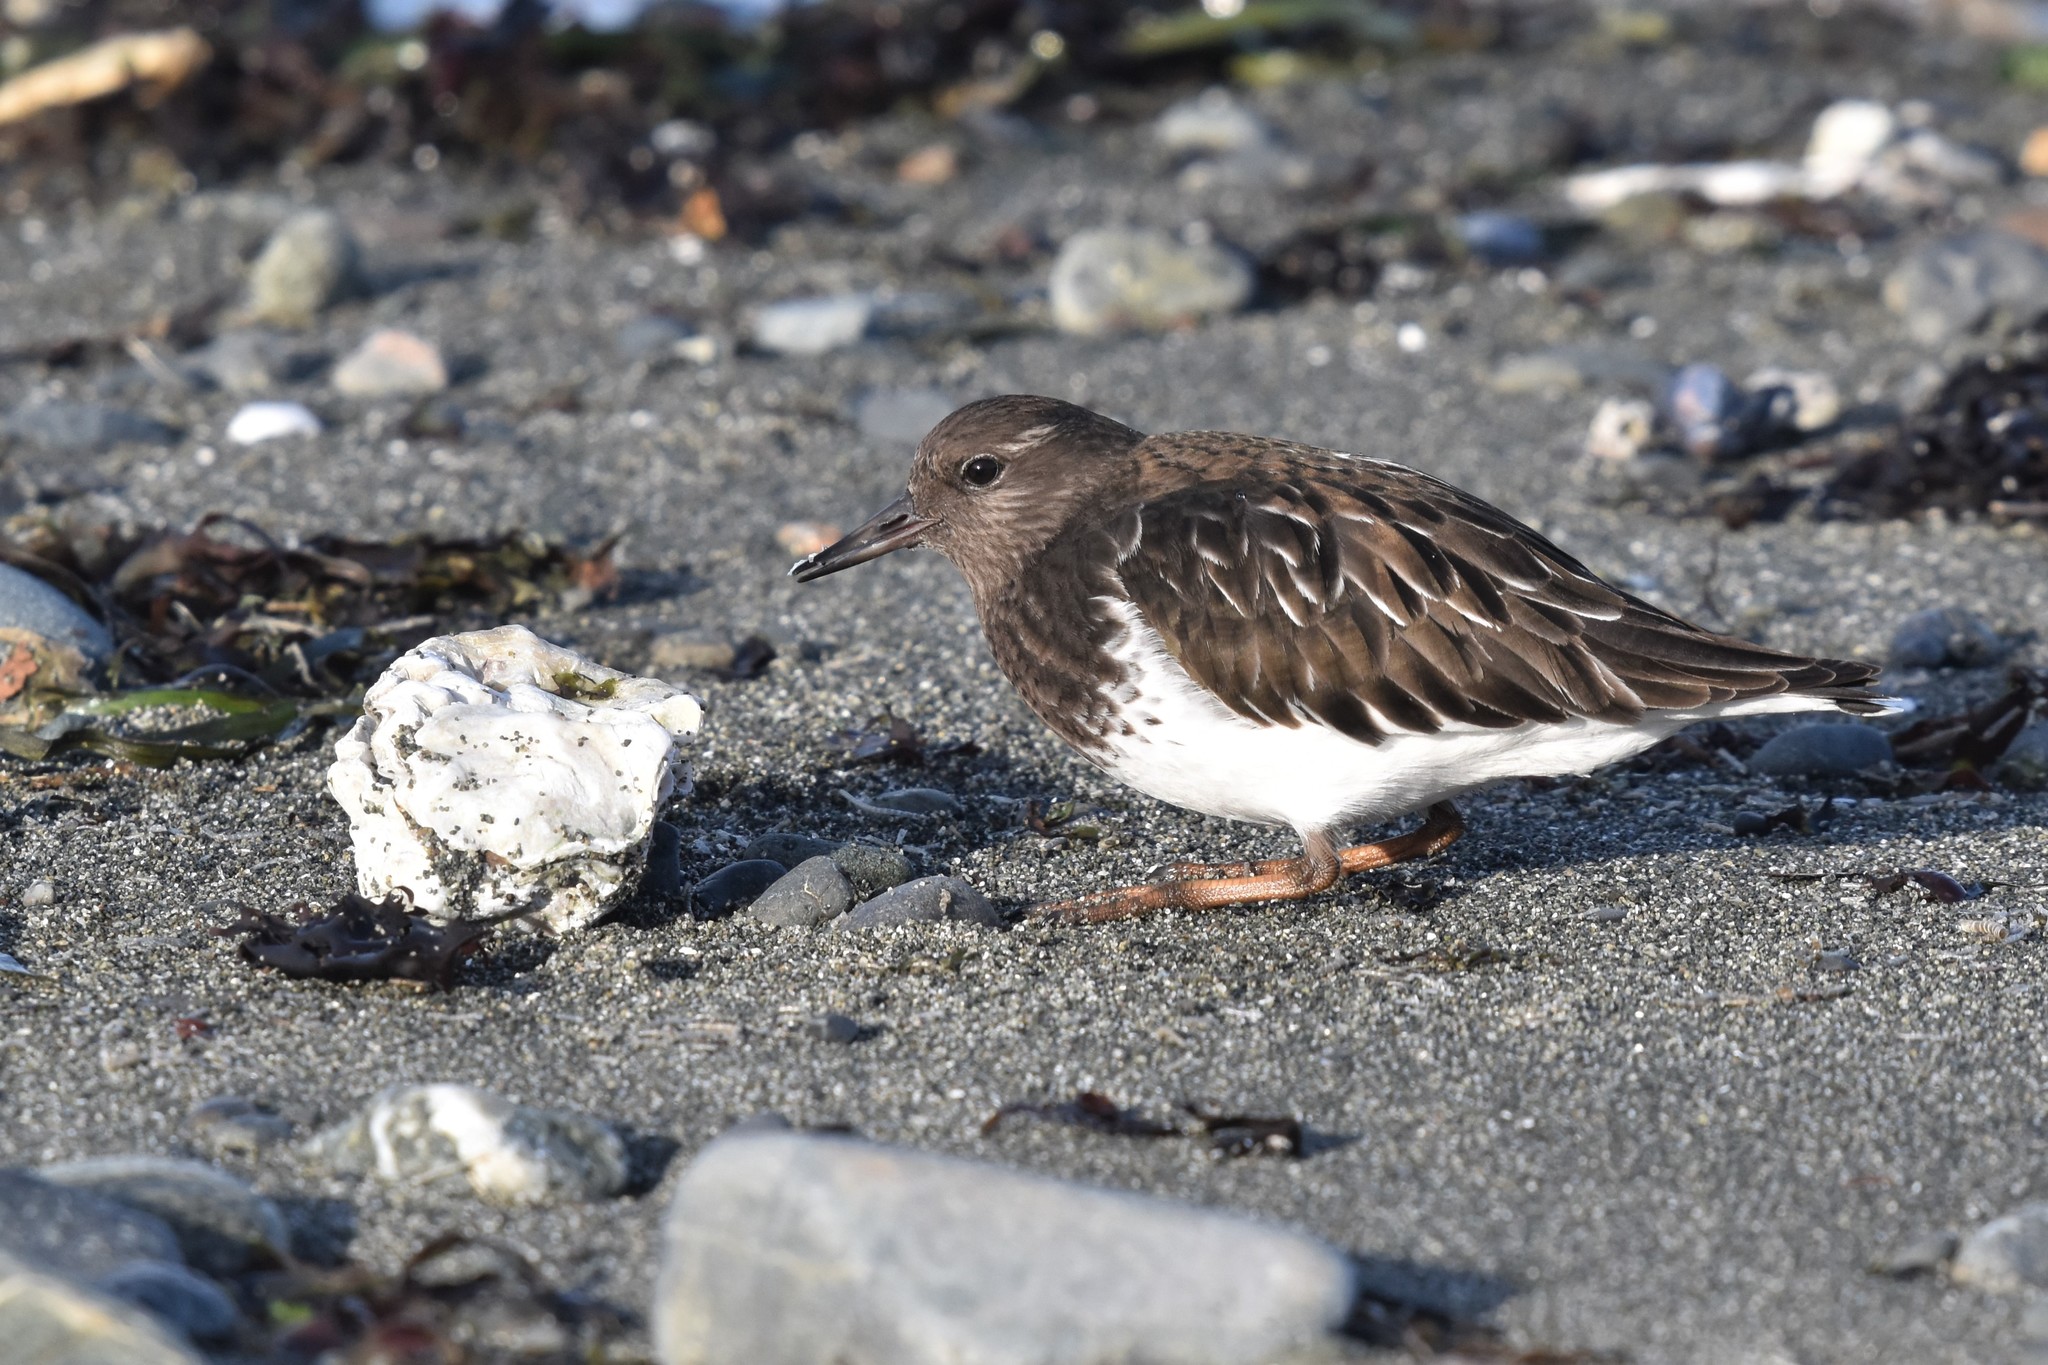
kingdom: Animalia
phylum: Chordata
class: Aves
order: Charadriiformes
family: Scolopacidae
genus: Arenaria
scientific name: Arenaria melanocephala
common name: Black turnstone
